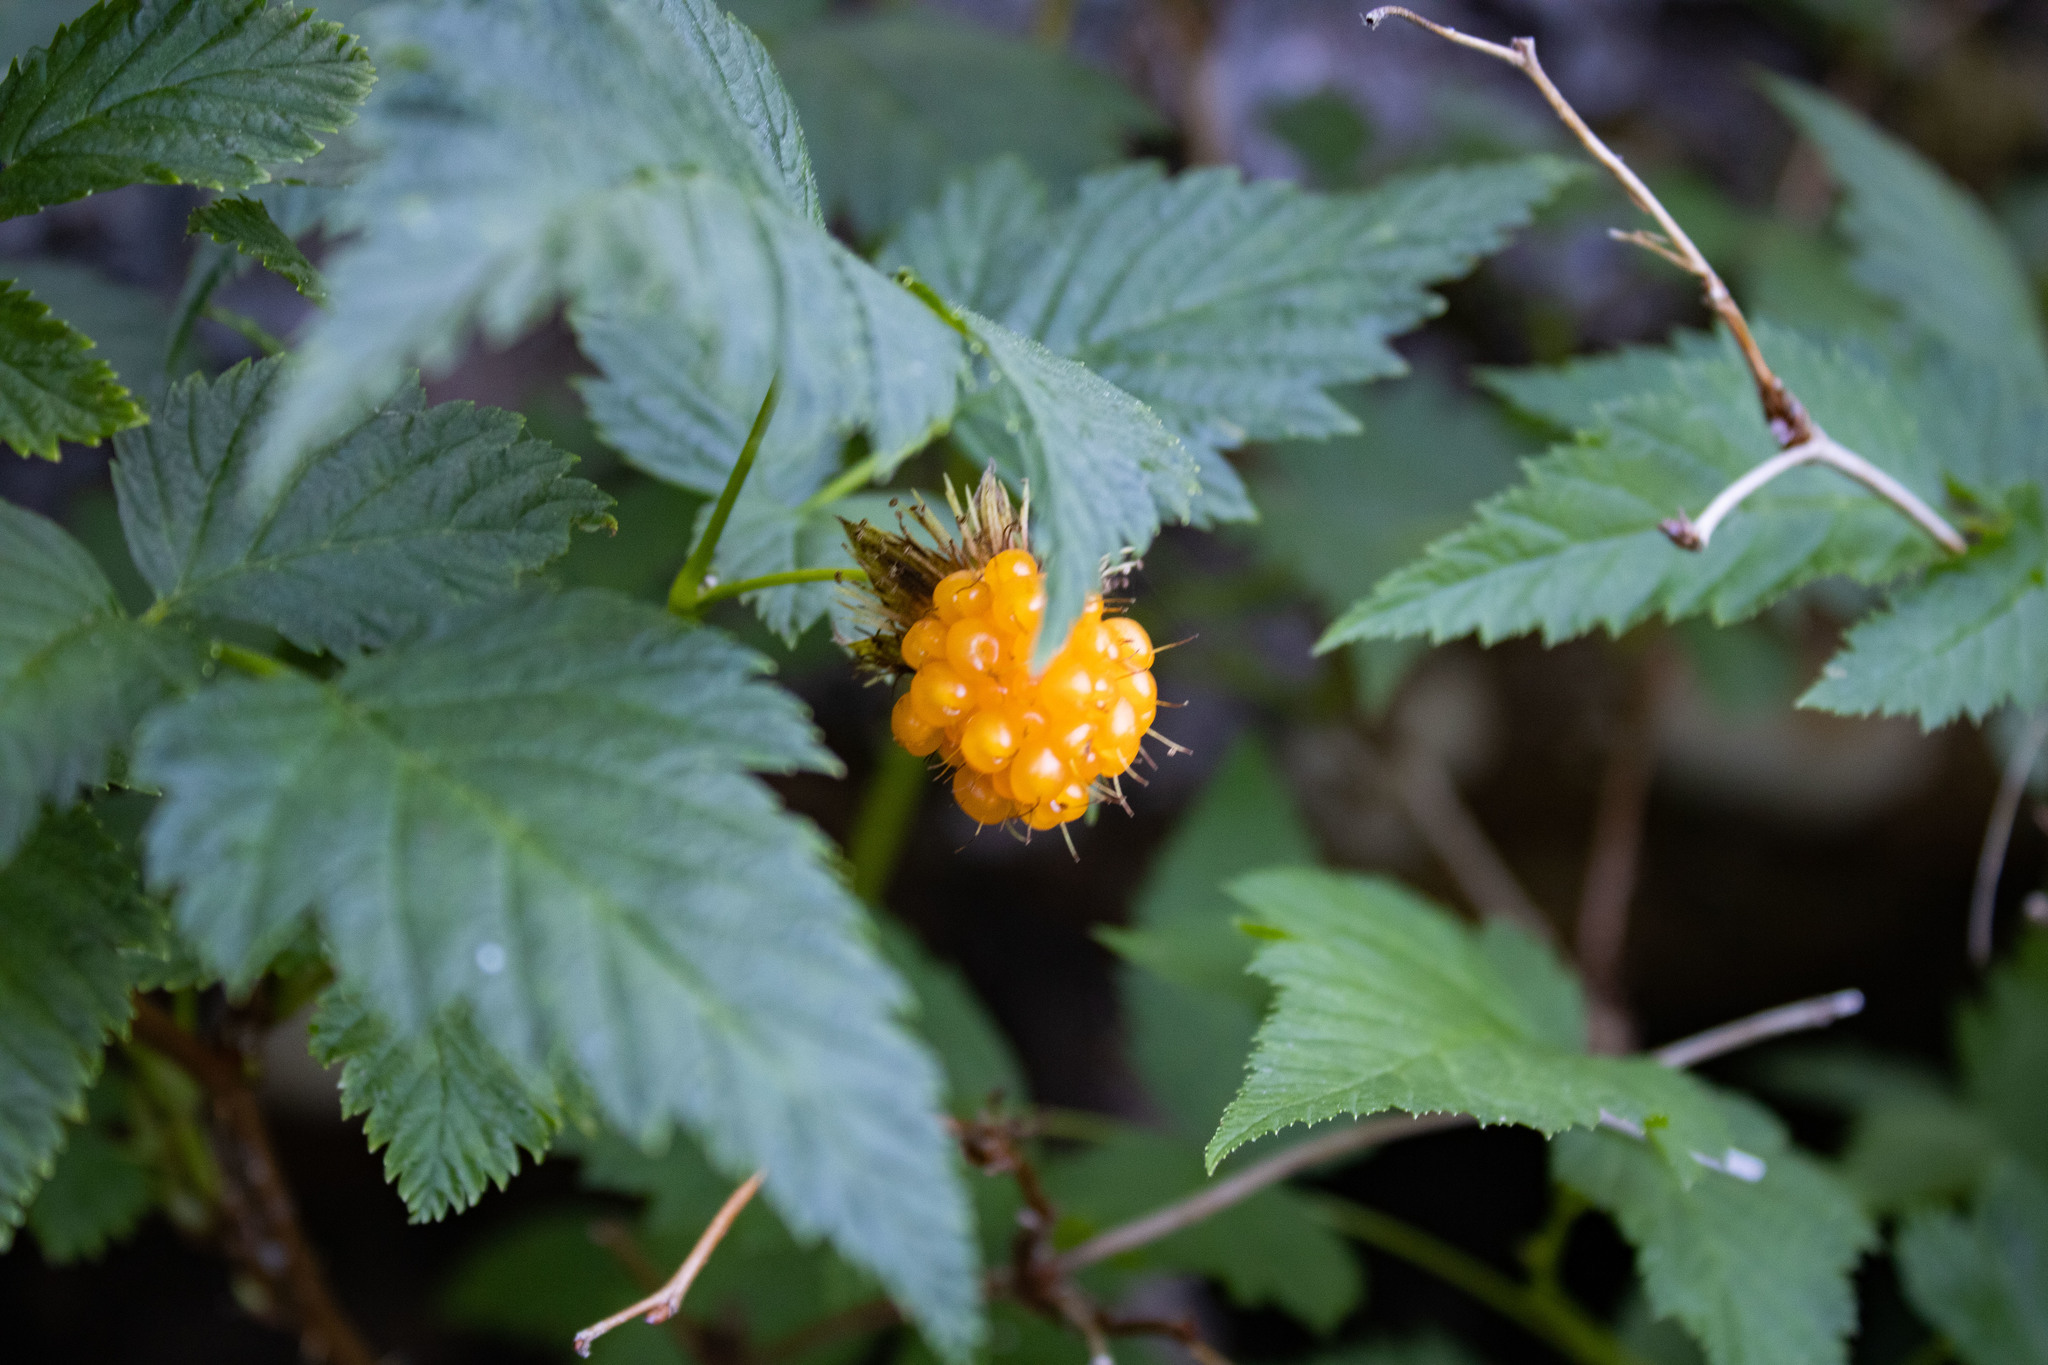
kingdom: Plantae
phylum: Tracheophyta
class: Magnoliopsida
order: Rosales
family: Rosaceae
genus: Rubus
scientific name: Rubus spectabilis
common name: Salmonberry
